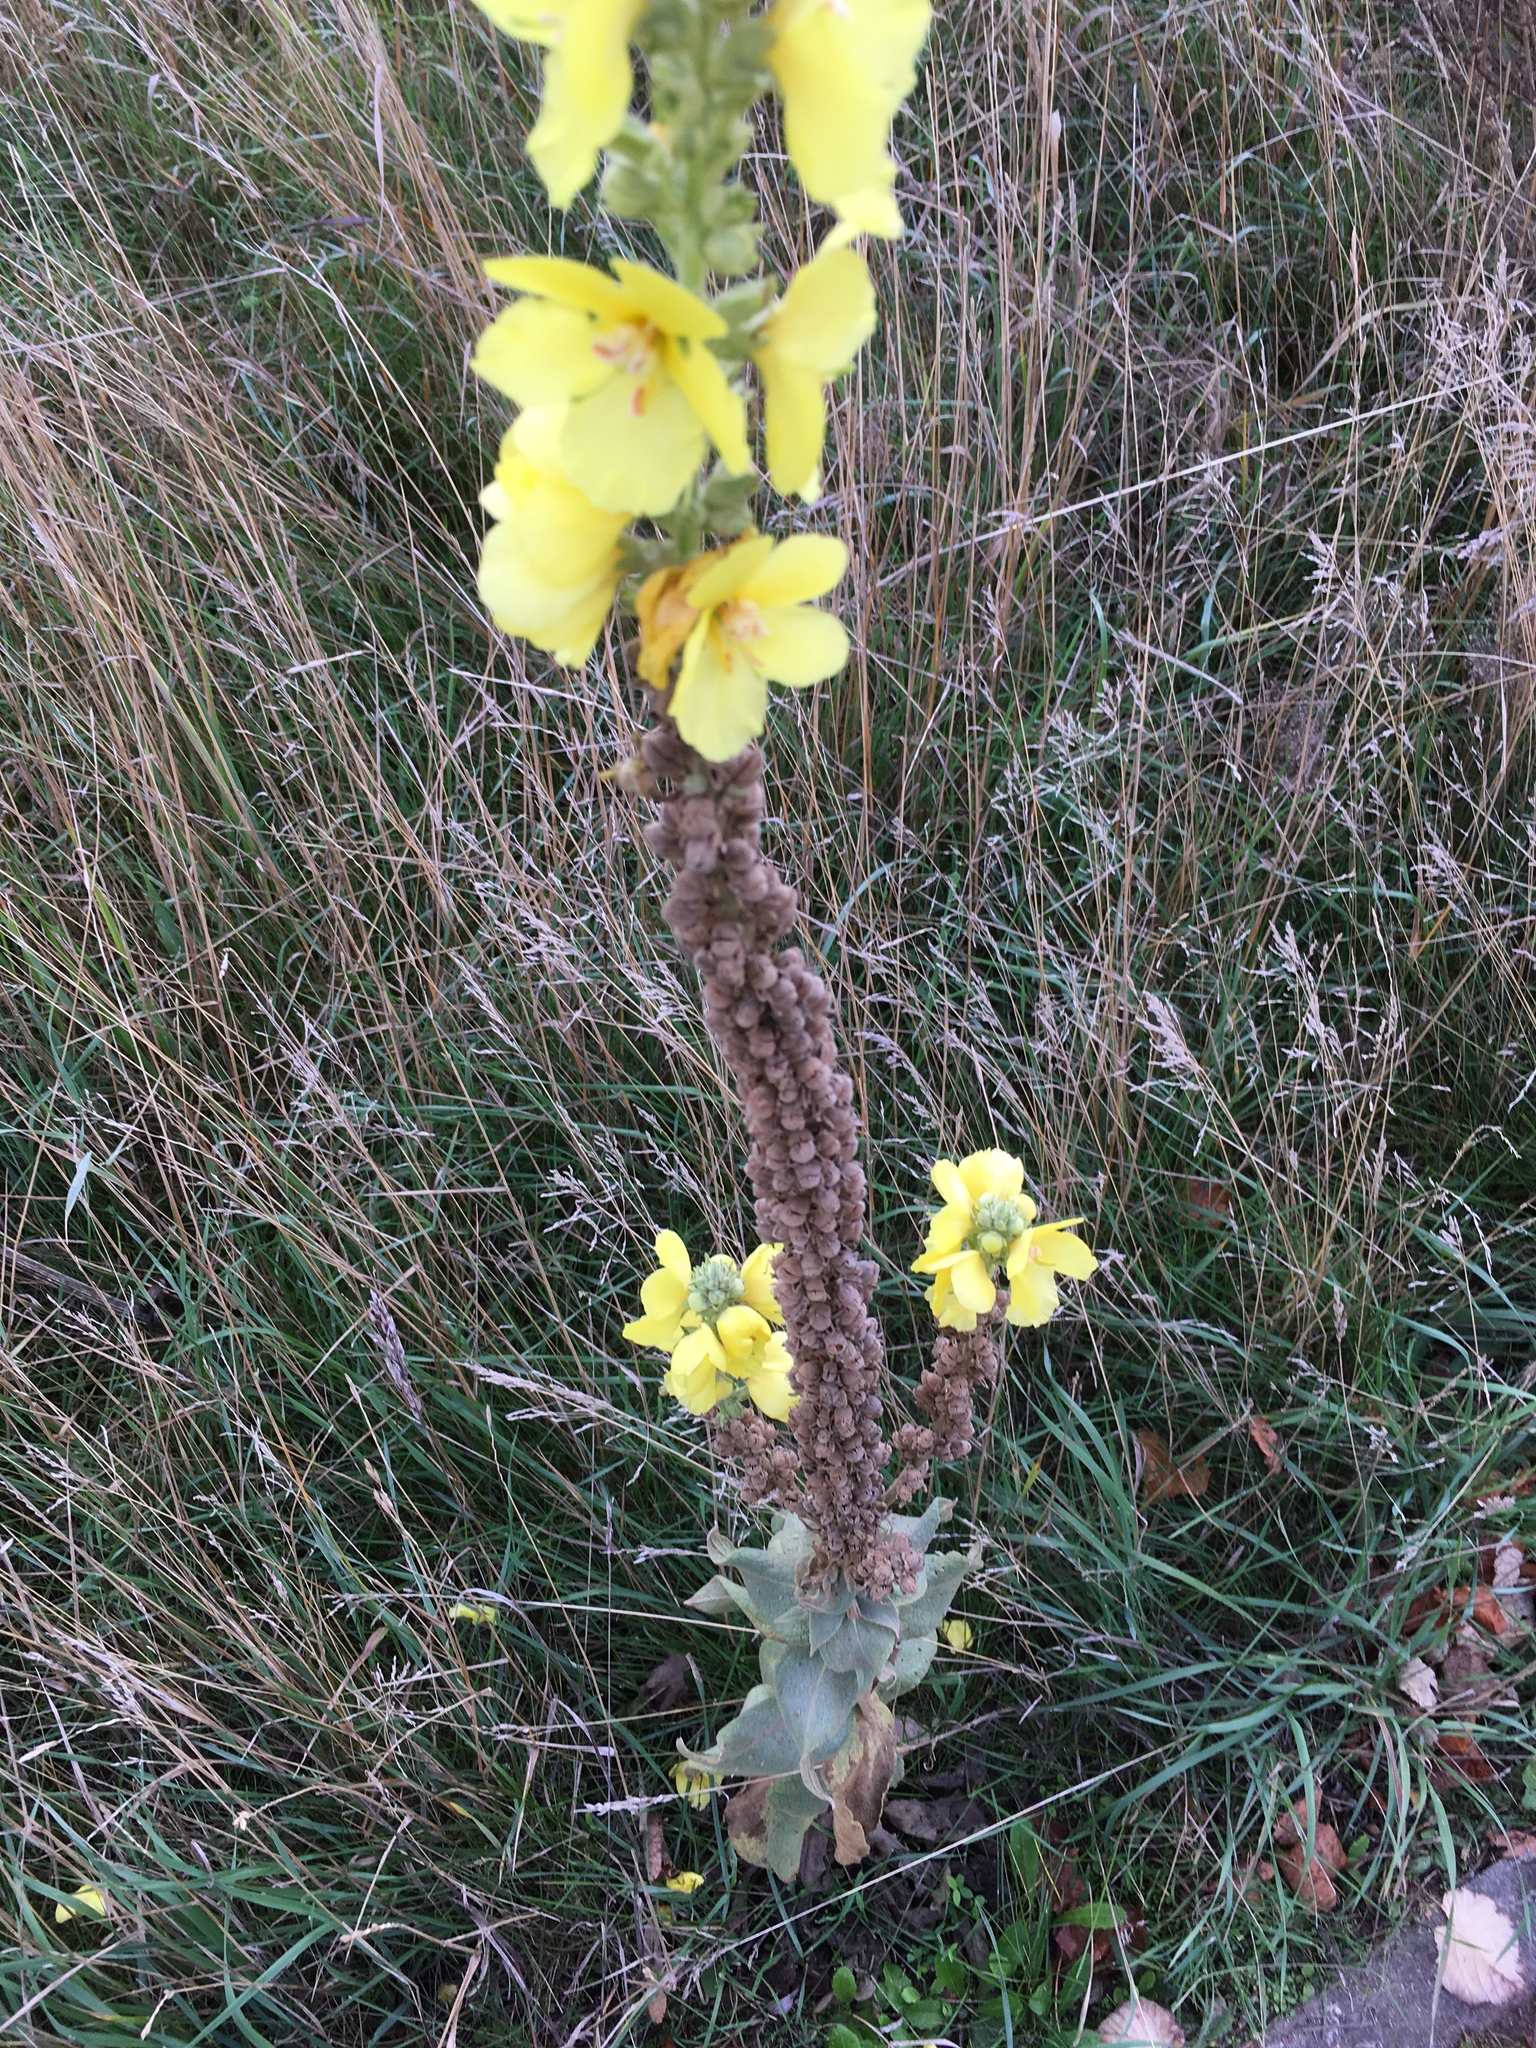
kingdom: Plantae
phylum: Tracheophyta
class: Magnoliopsida
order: Lamiales
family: Scrophulariaceae
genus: Verbascum
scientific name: Verbascum densiflorum
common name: Dense-flowered mullein
